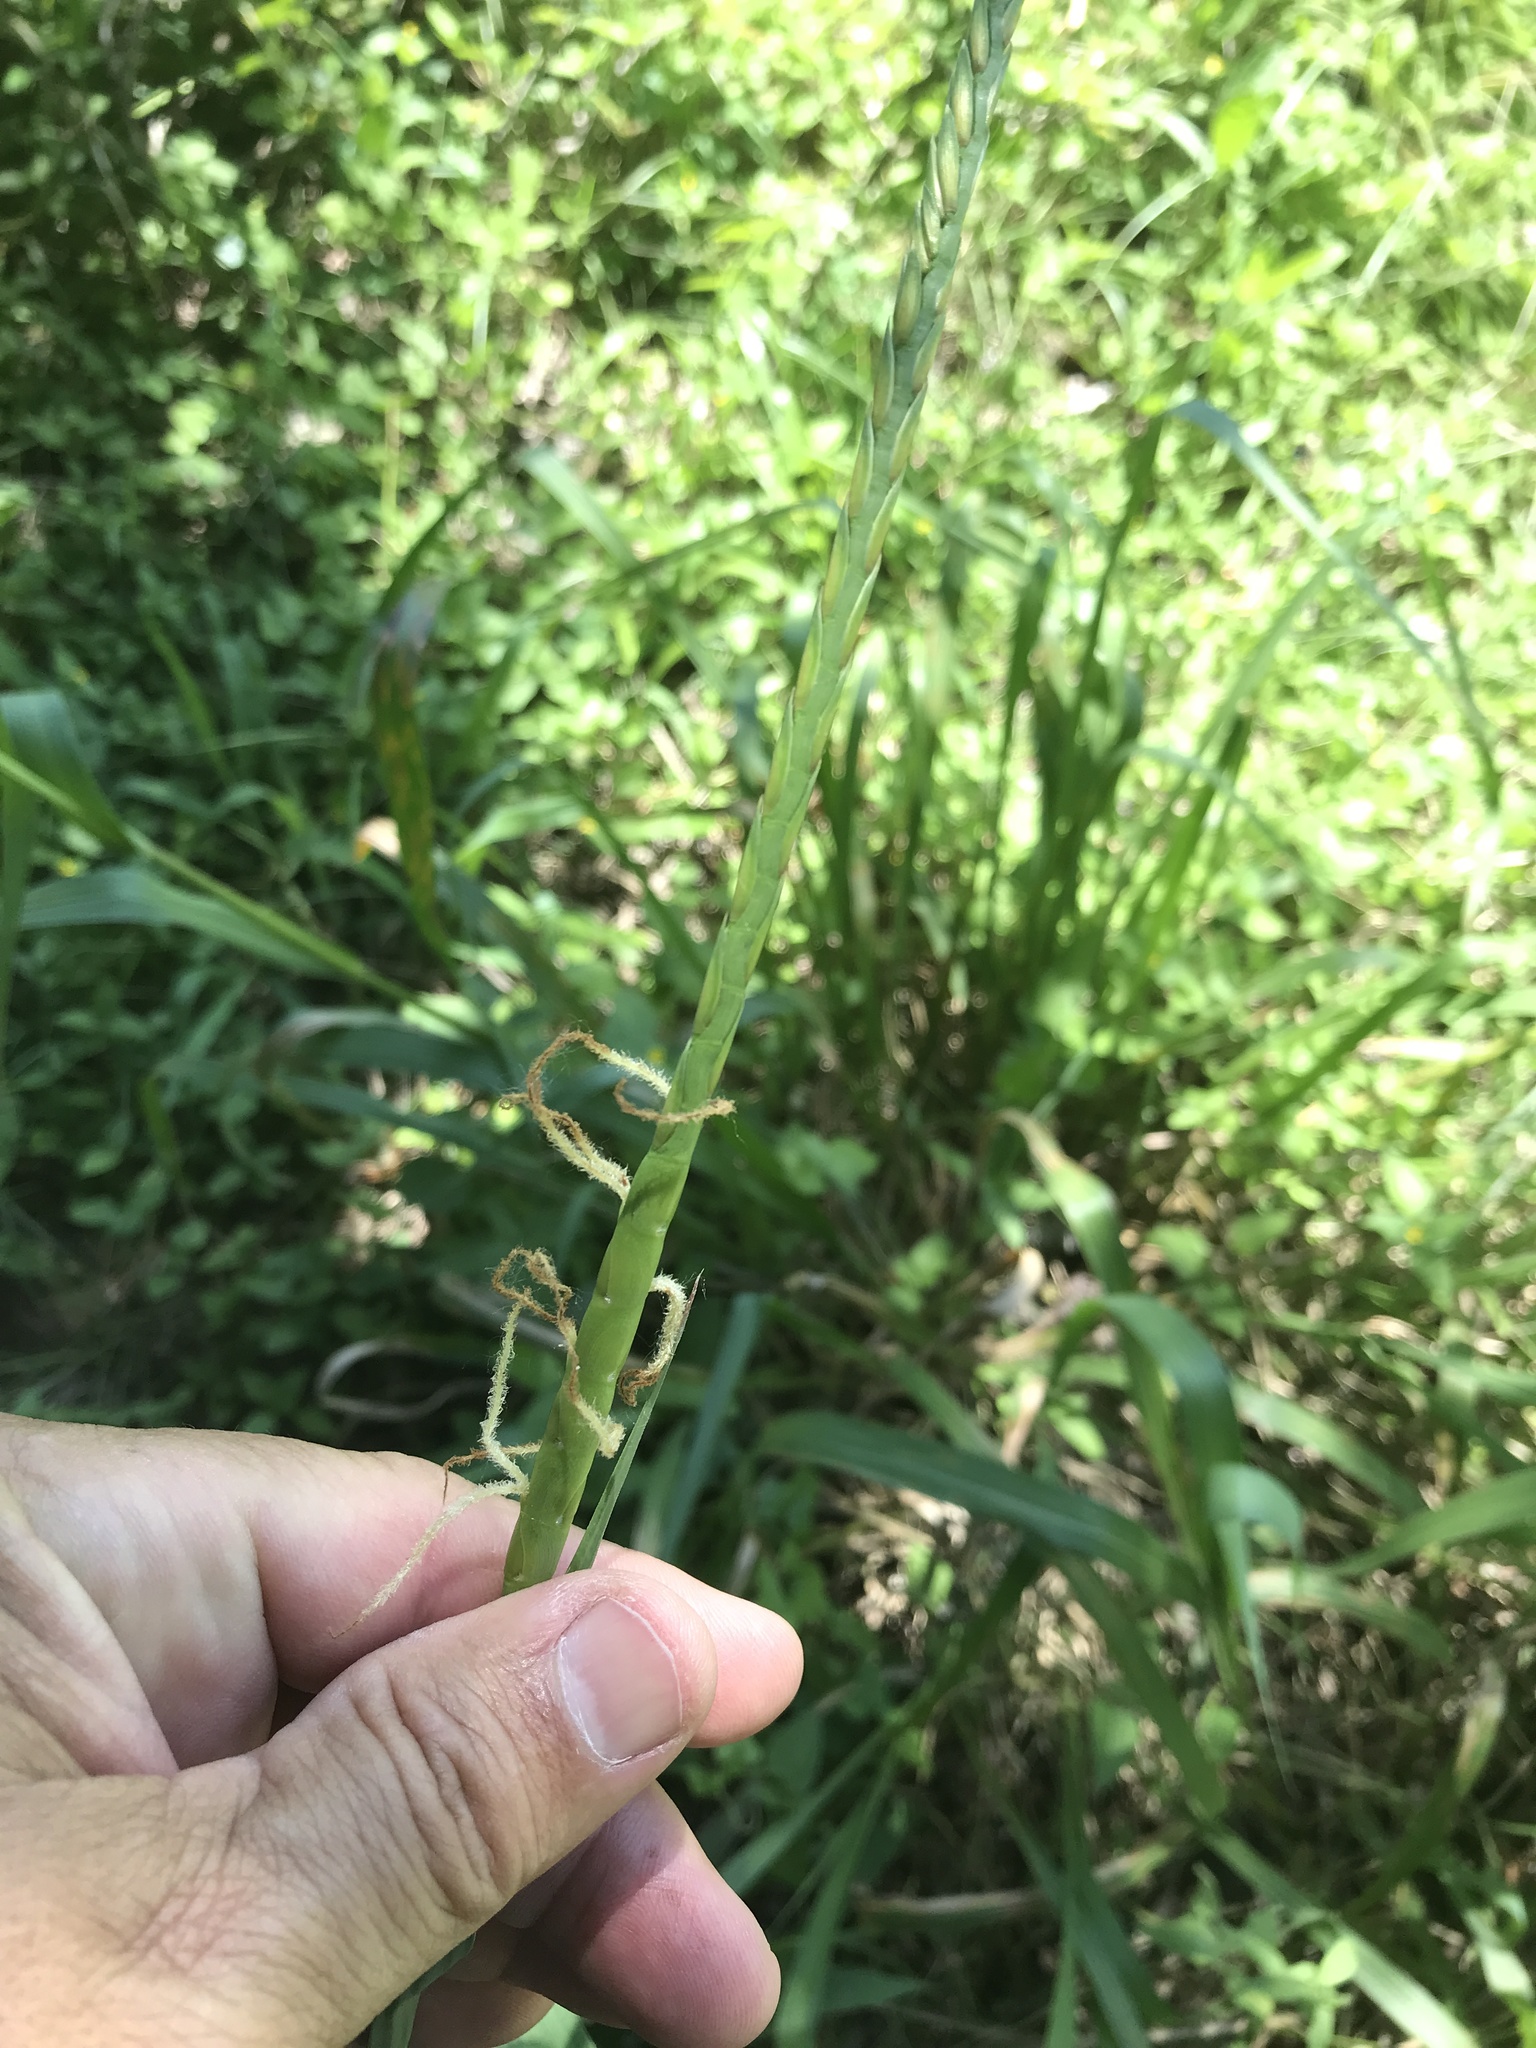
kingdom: Plantae
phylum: Tracheophyta
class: Liliopsida
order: Poales
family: Poaceae
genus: Tripsacum
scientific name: Tripsacum dactyloides
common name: Buffalo-grass
